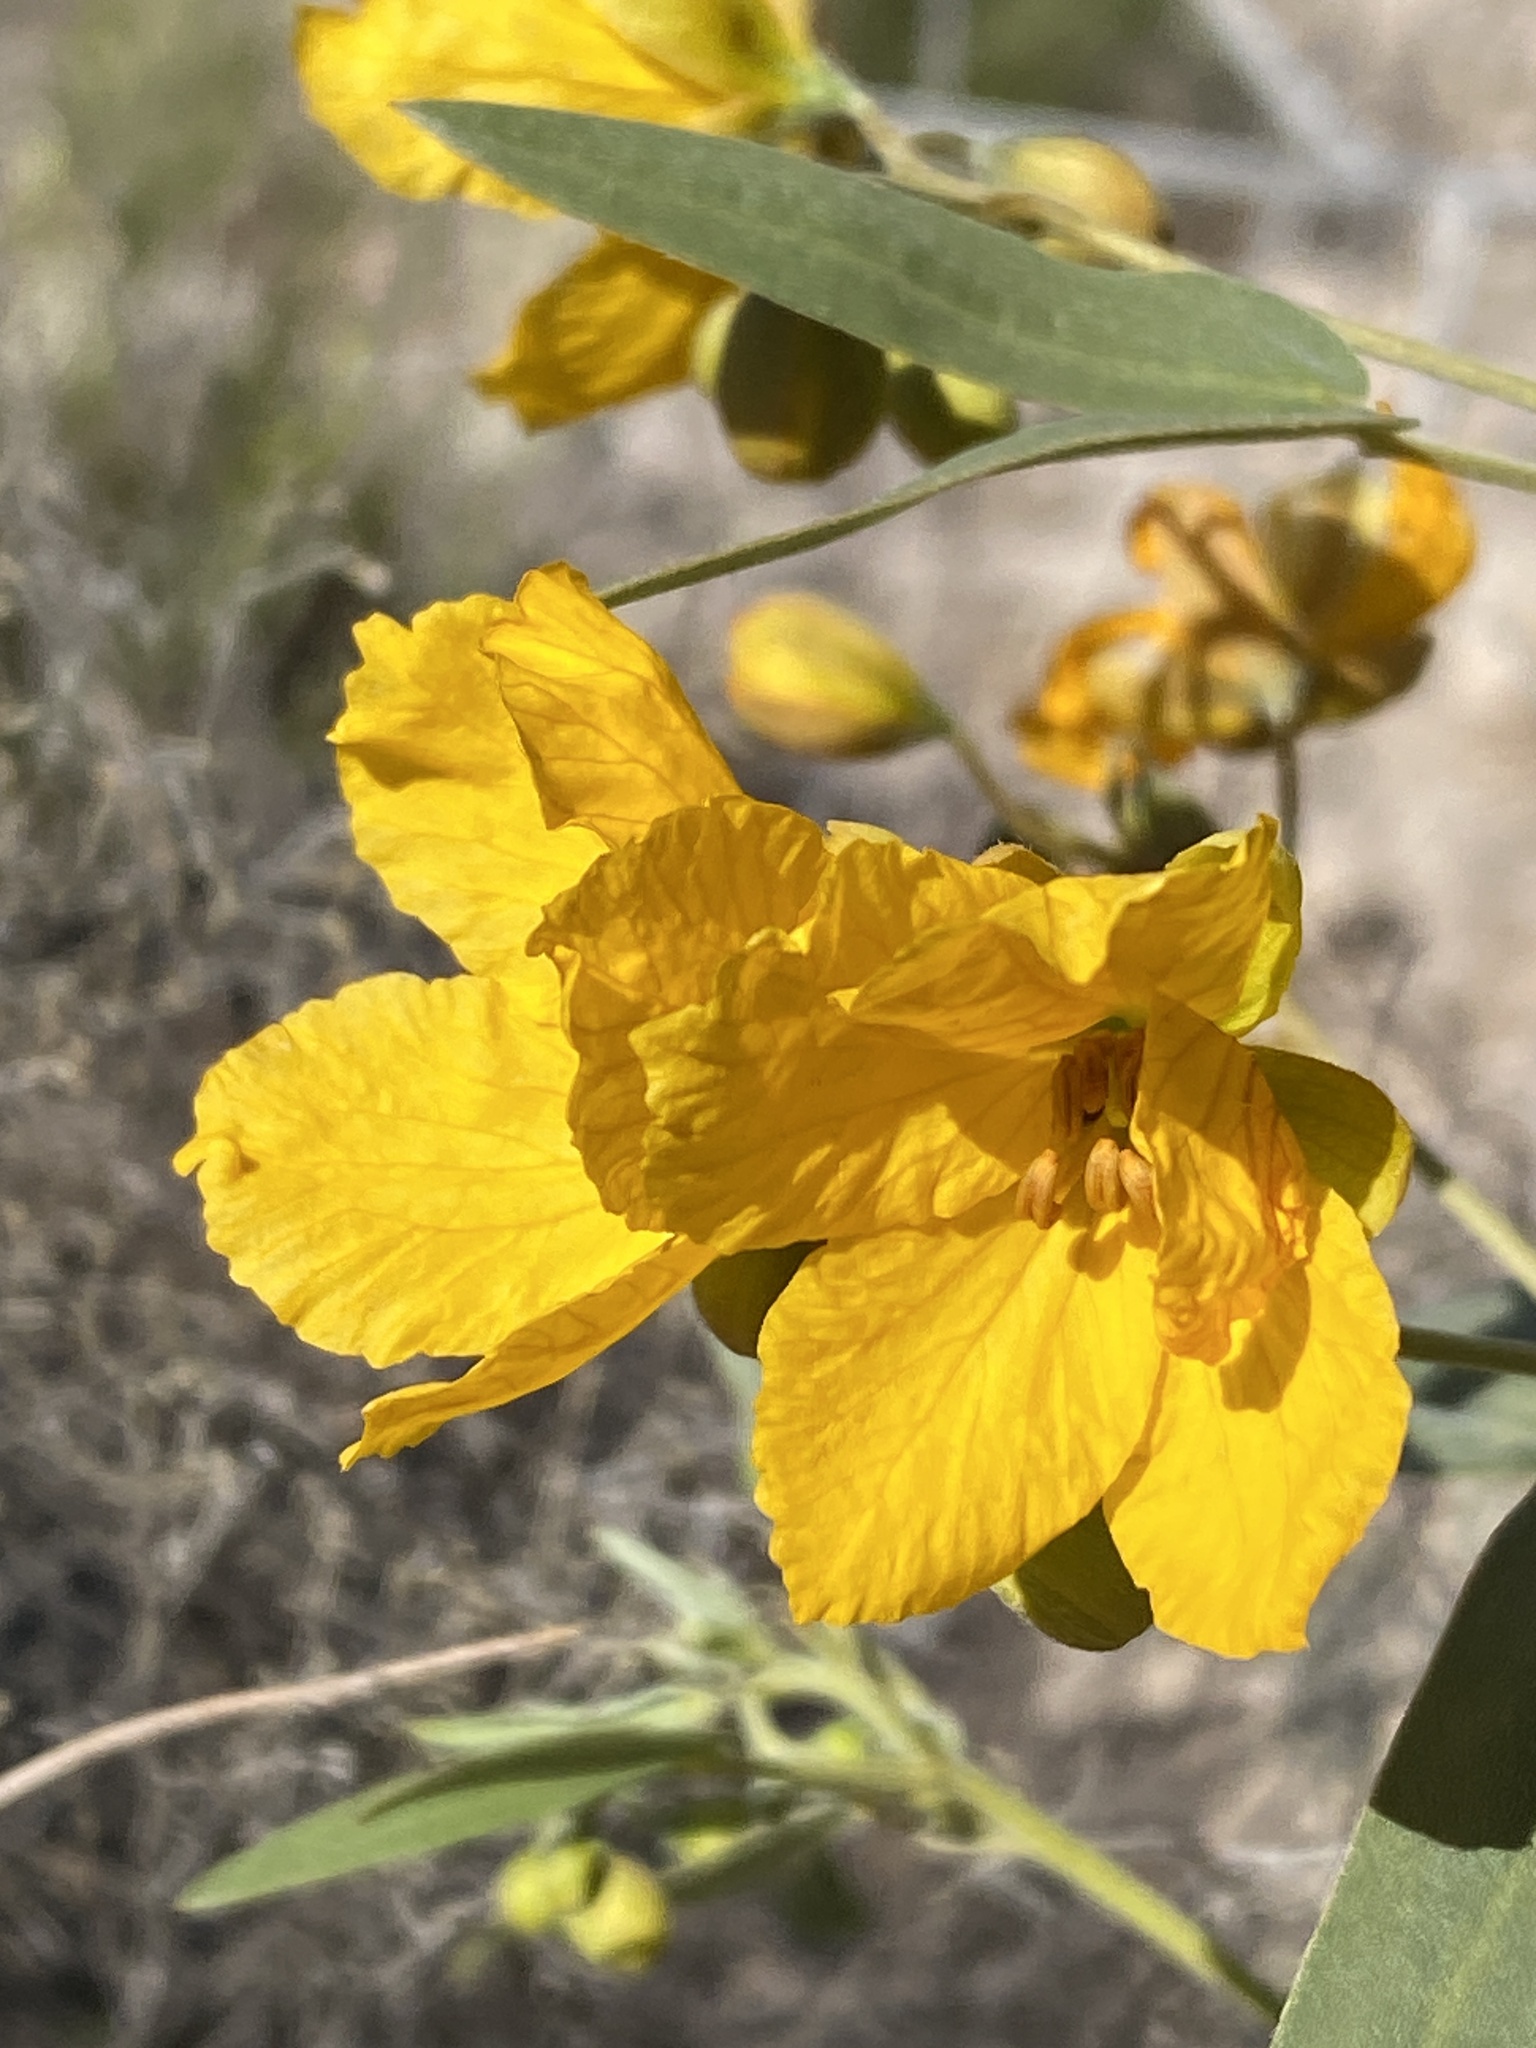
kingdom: Plantae
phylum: Tracheophyta
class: Magnoliopsida
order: Fabales
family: Fabaceae
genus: Senna
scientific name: Senna roemeriana
